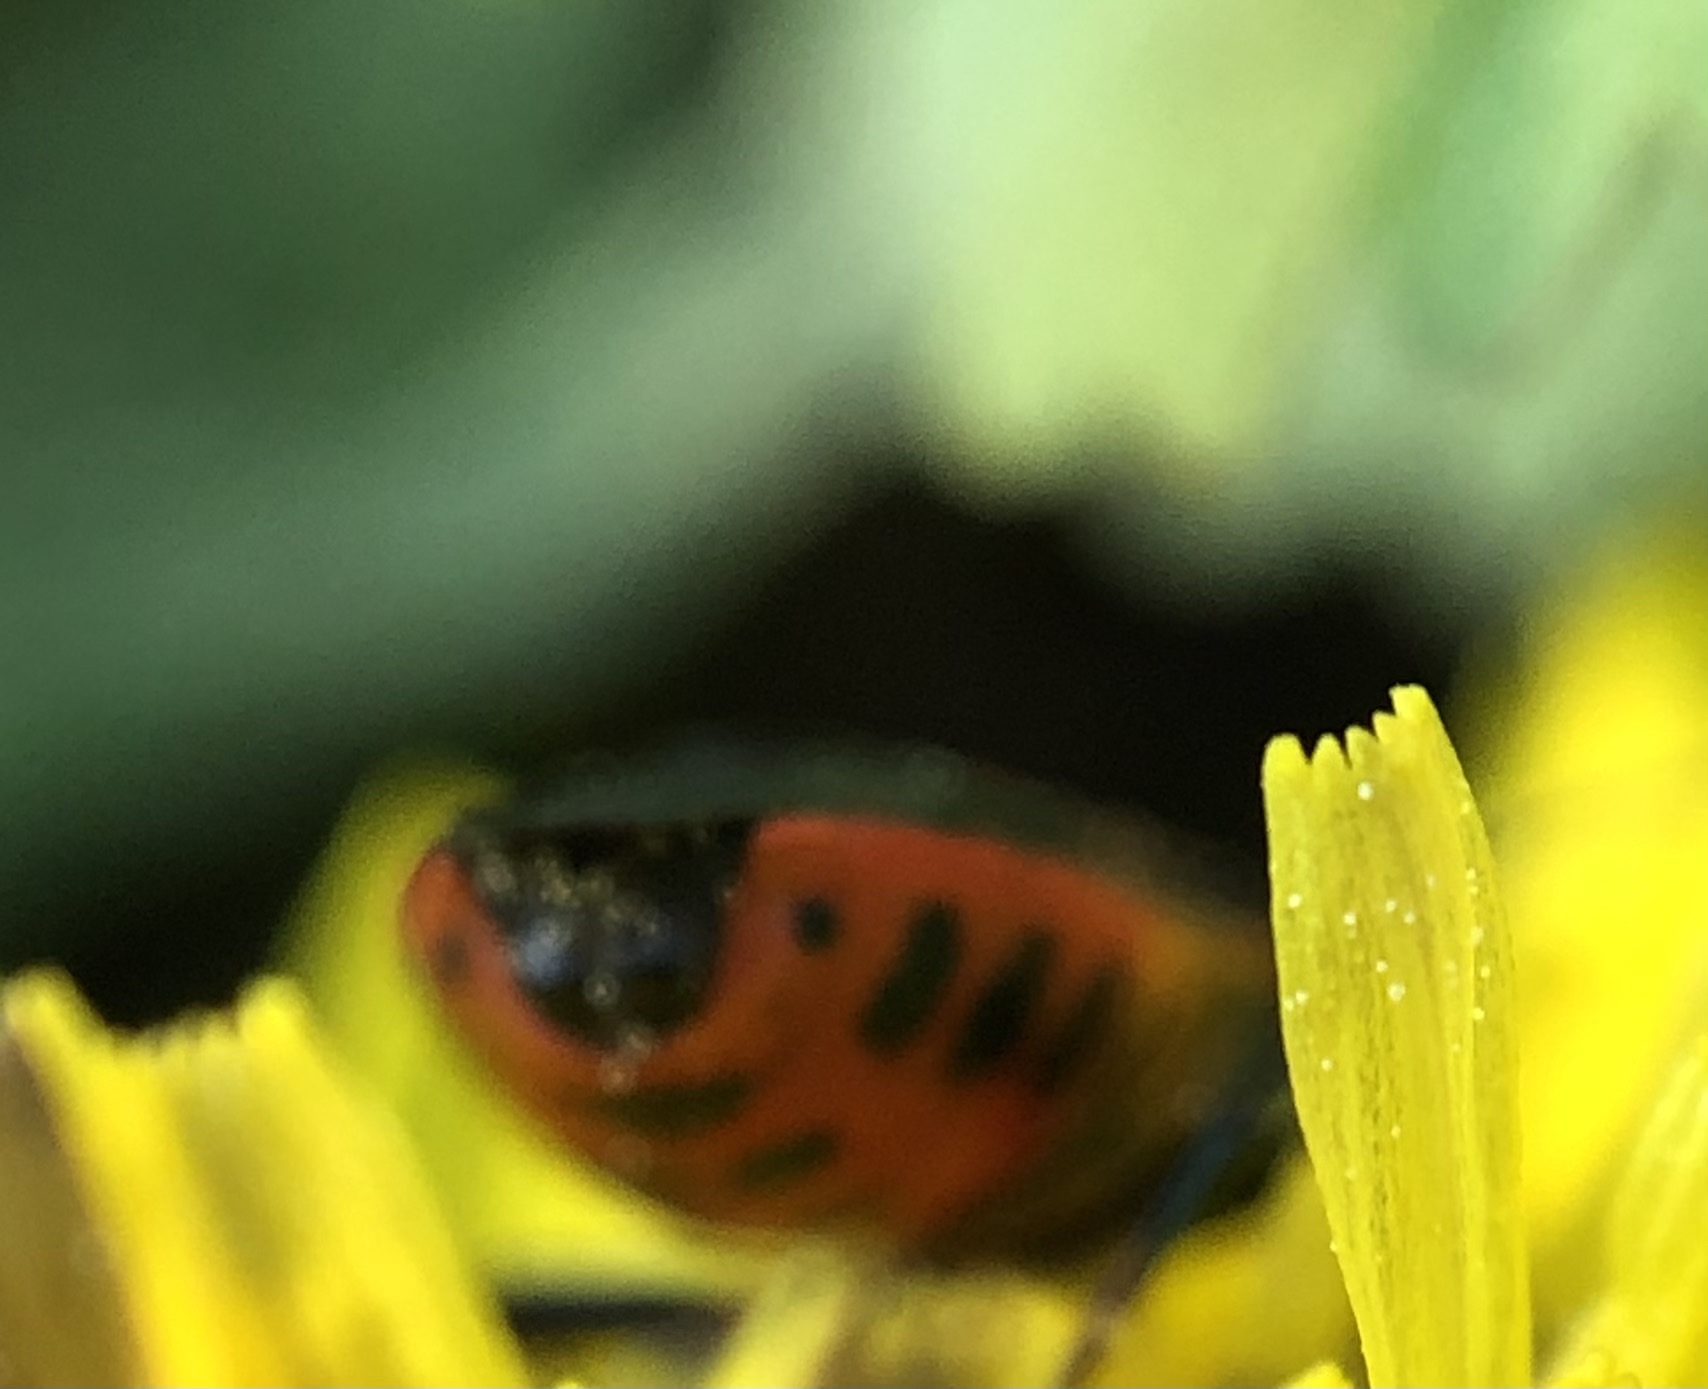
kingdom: Animalia
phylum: Arthropoda
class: Insecta
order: Hemiptera
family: Pentatomidae
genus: Perillus
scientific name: Perillus strigipes
